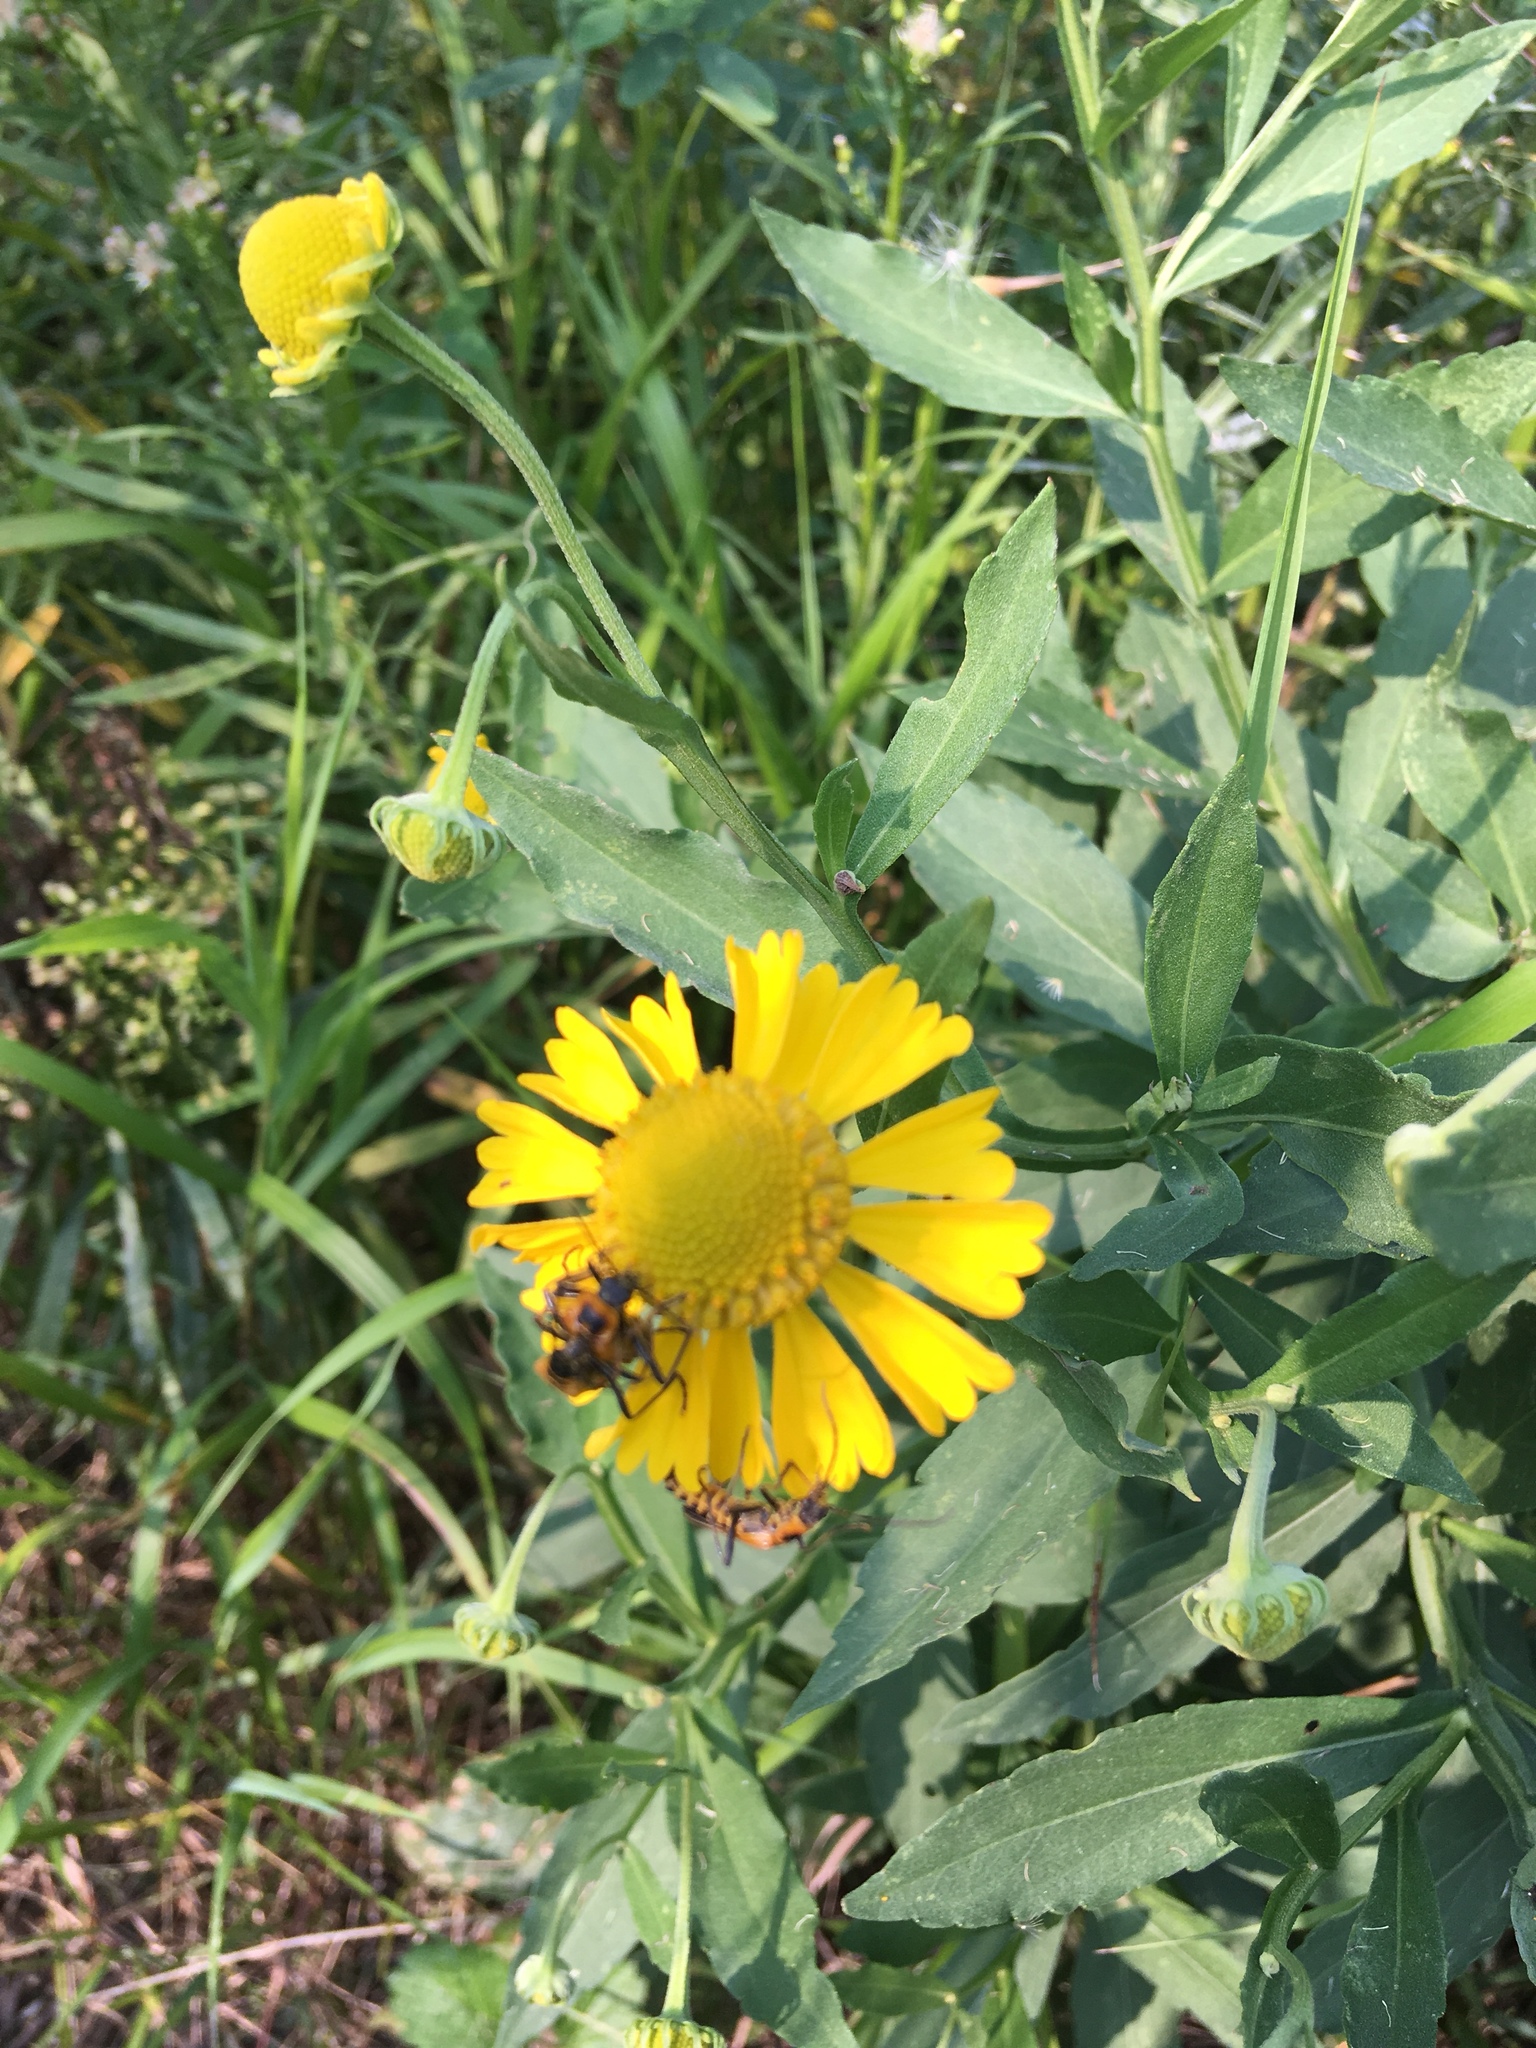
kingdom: Plantae
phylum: Tracheophyta
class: Magnoliopsida
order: Asterales
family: Asteraceae
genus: Helenium
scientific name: Helenium autumnale
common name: Sneezeweed
